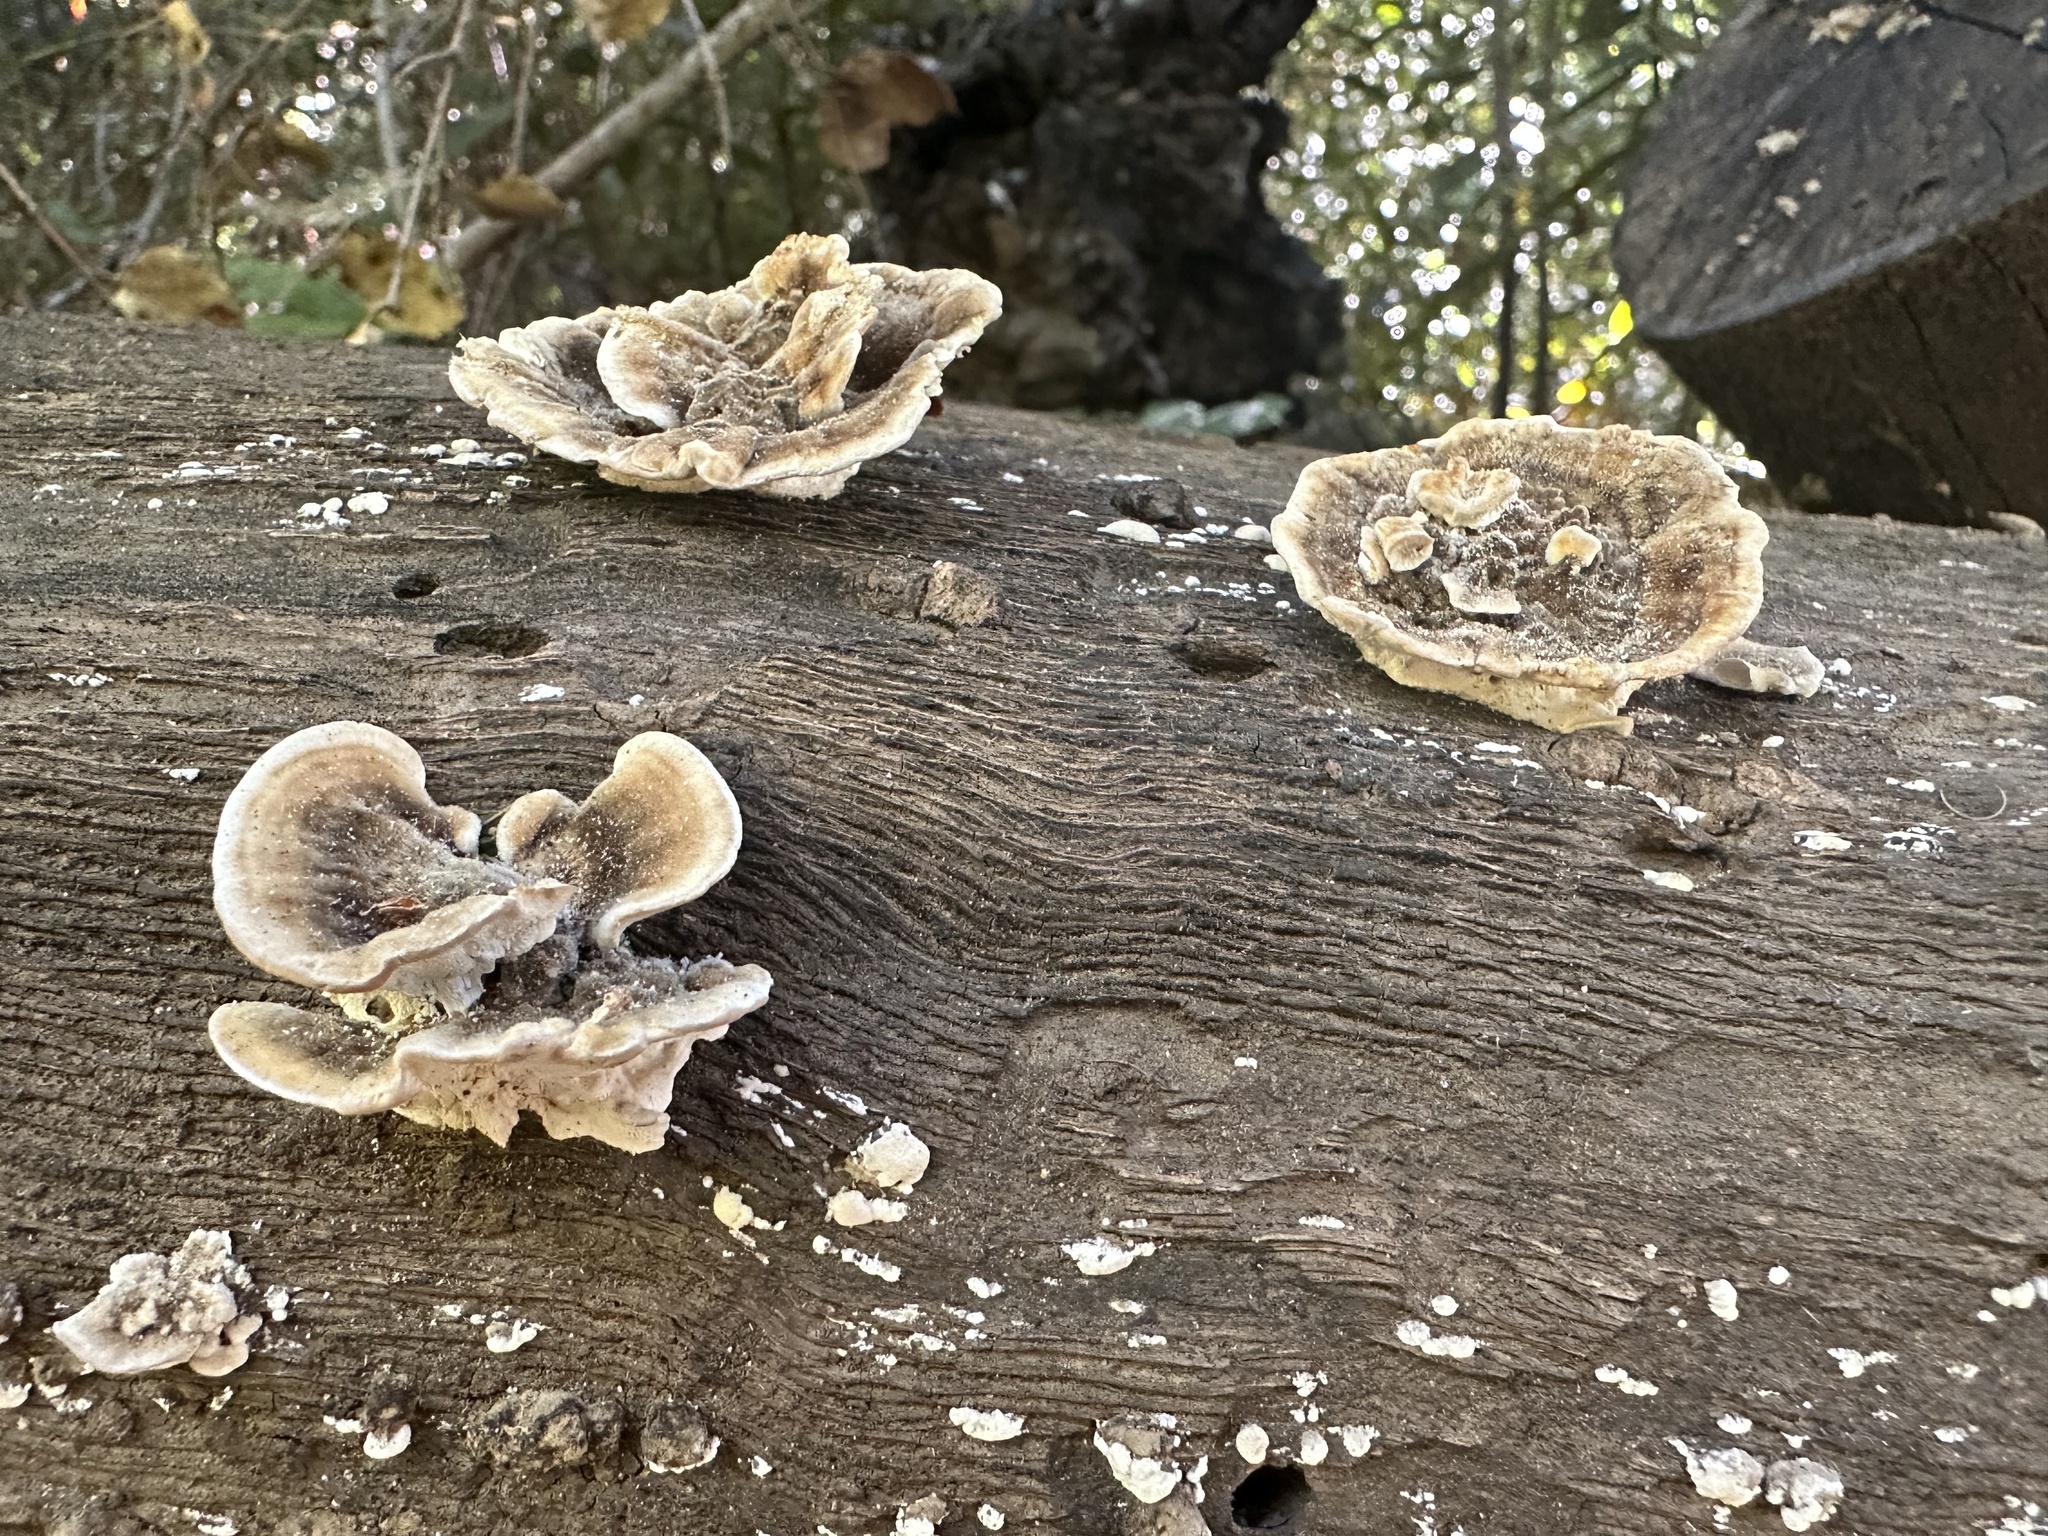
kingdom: Fungi
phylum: Basidiomycota
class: Agaricomycetes
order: Polyporales
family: Polyporaceae
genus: Trametes
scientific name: Trametes versicolor
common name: Turkeytail
